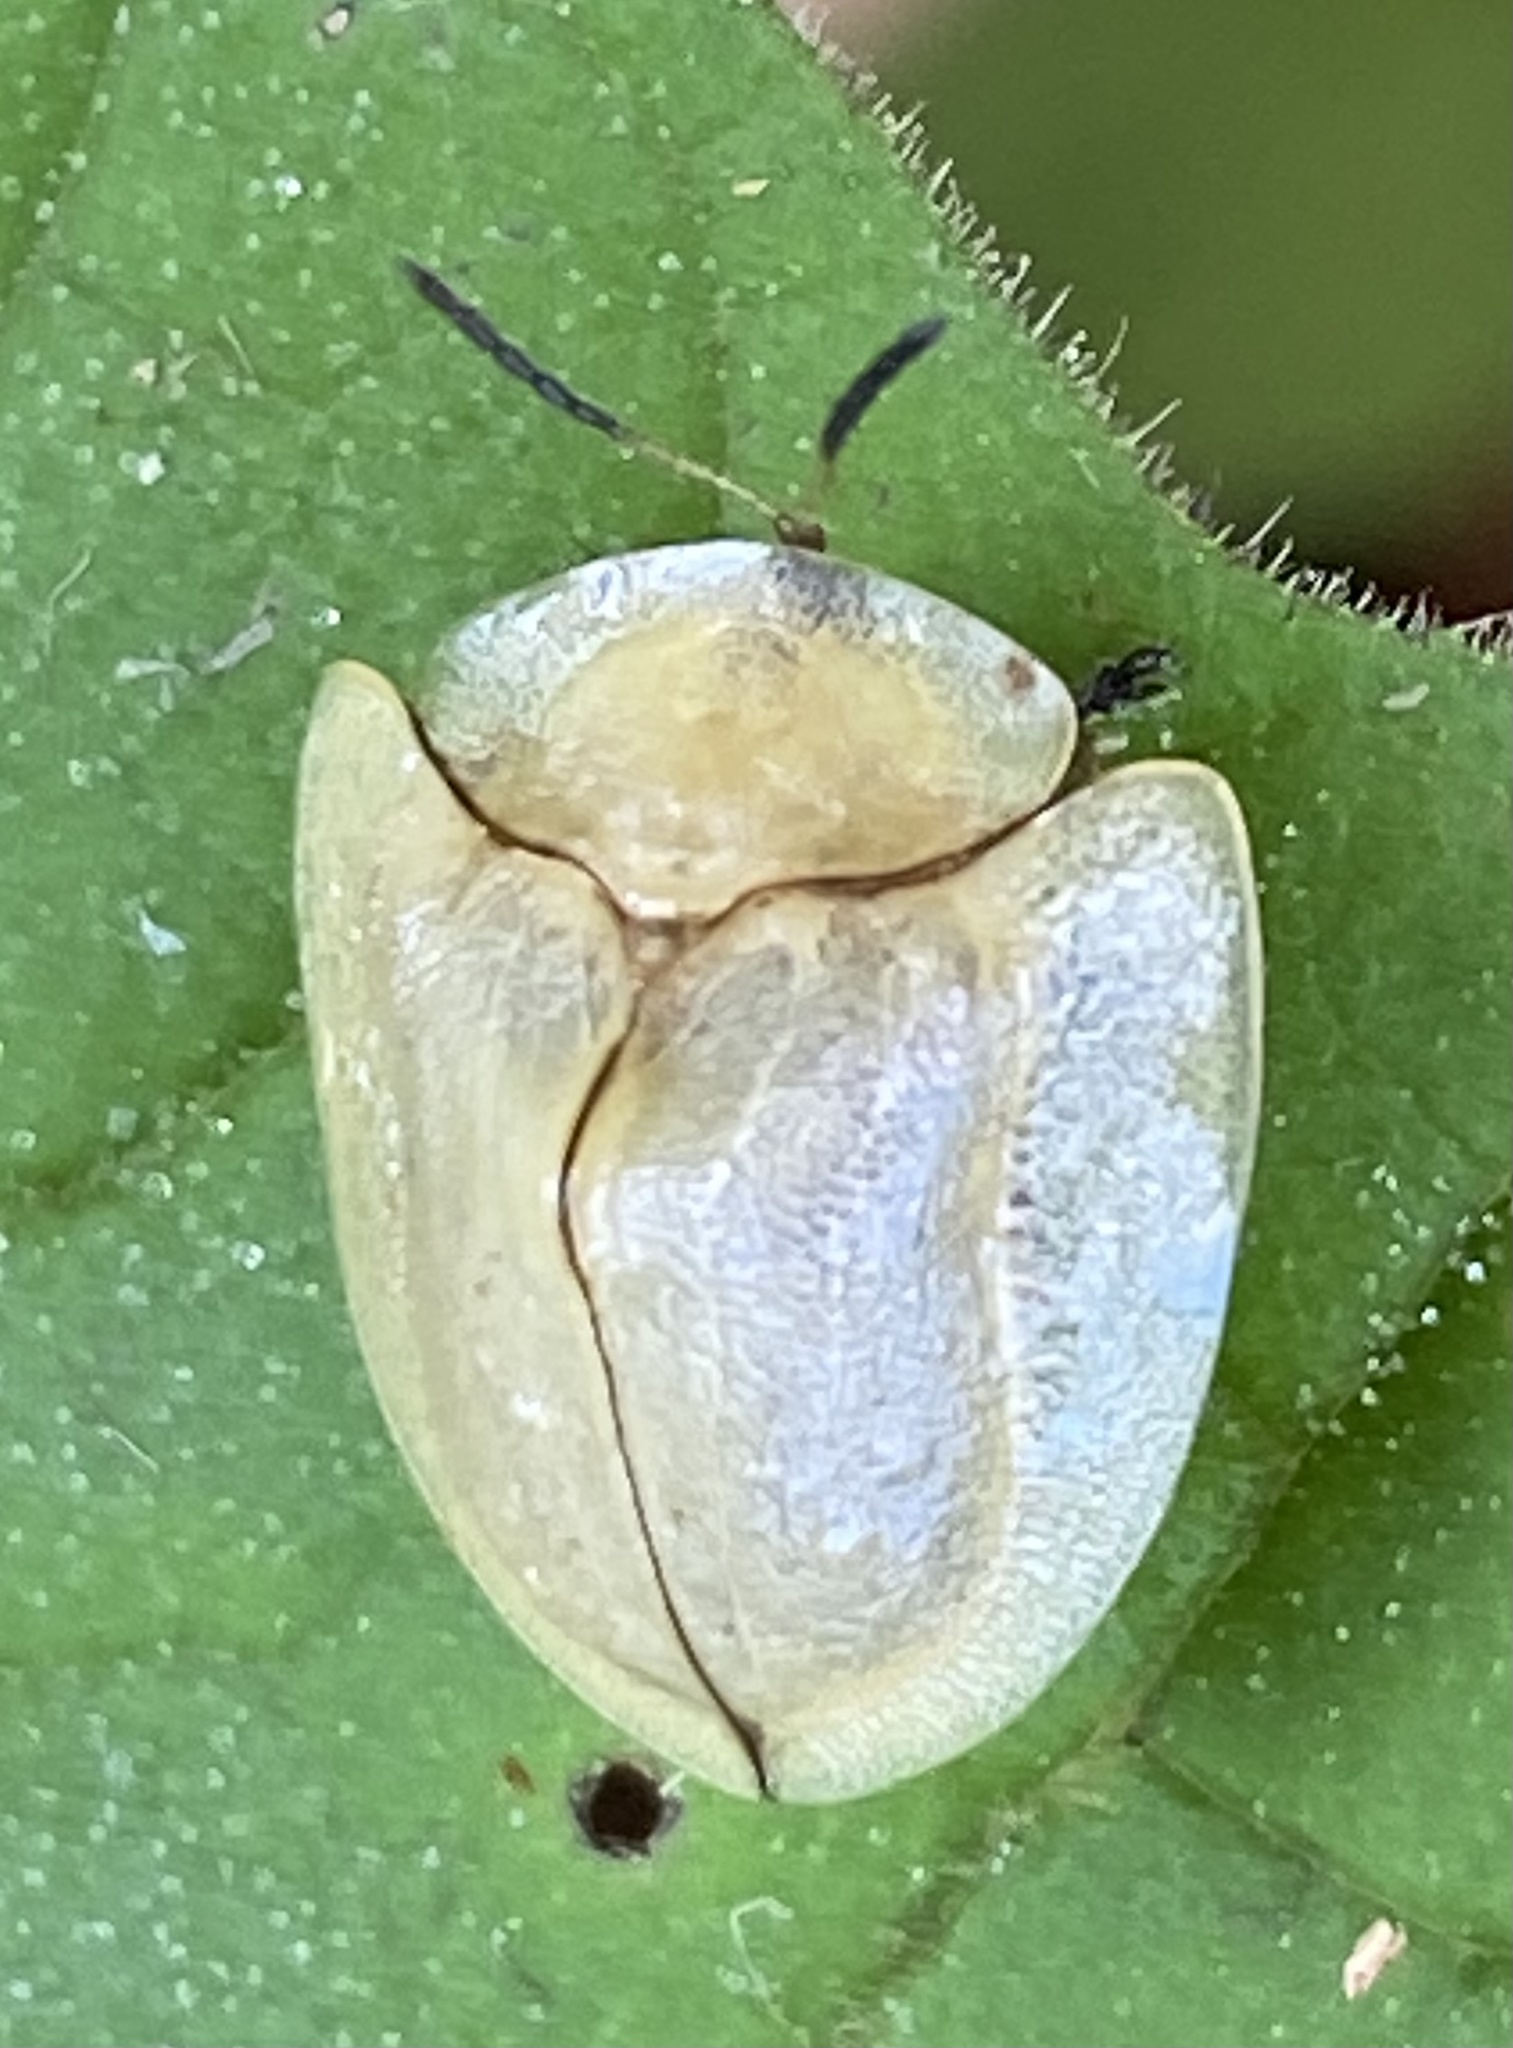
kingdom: Animalia
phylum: Arthropoda
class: Insecta
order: Coleoptera
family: Chrysomelidae
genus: Metriona
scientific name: Metriona elatior
